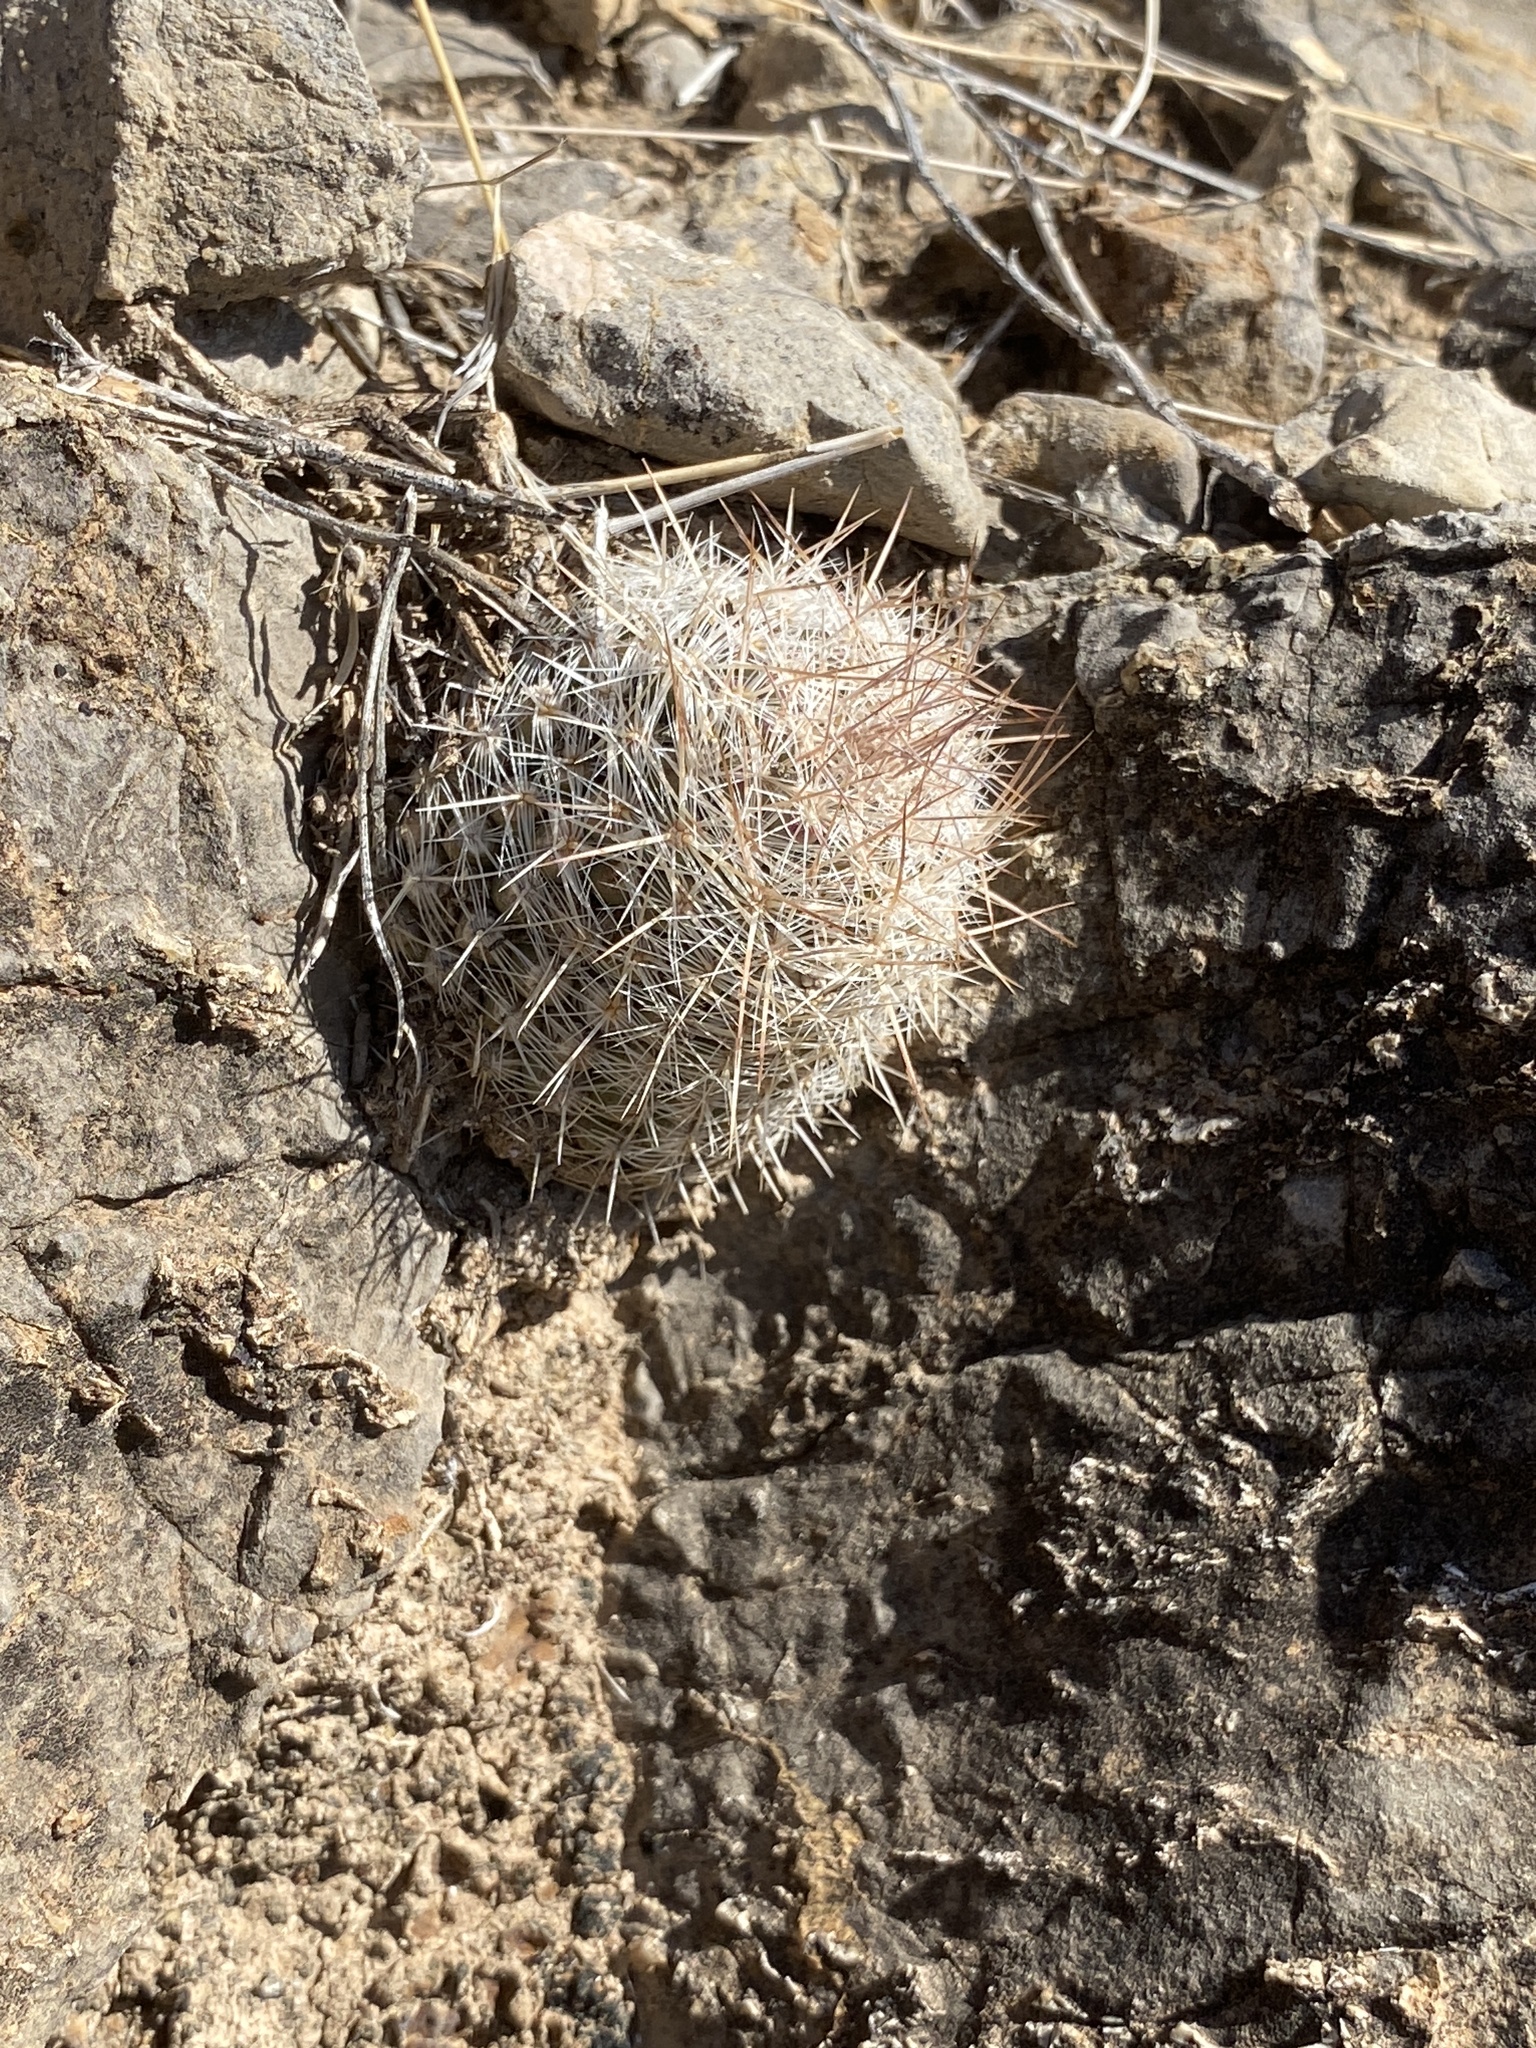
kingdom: Plantae
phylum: Tracheophyta
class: Magnoliopsida
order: Caryophyllales
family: Cactaceae
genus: Pelecyphora
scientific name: Pelecyphora tuberculosa
